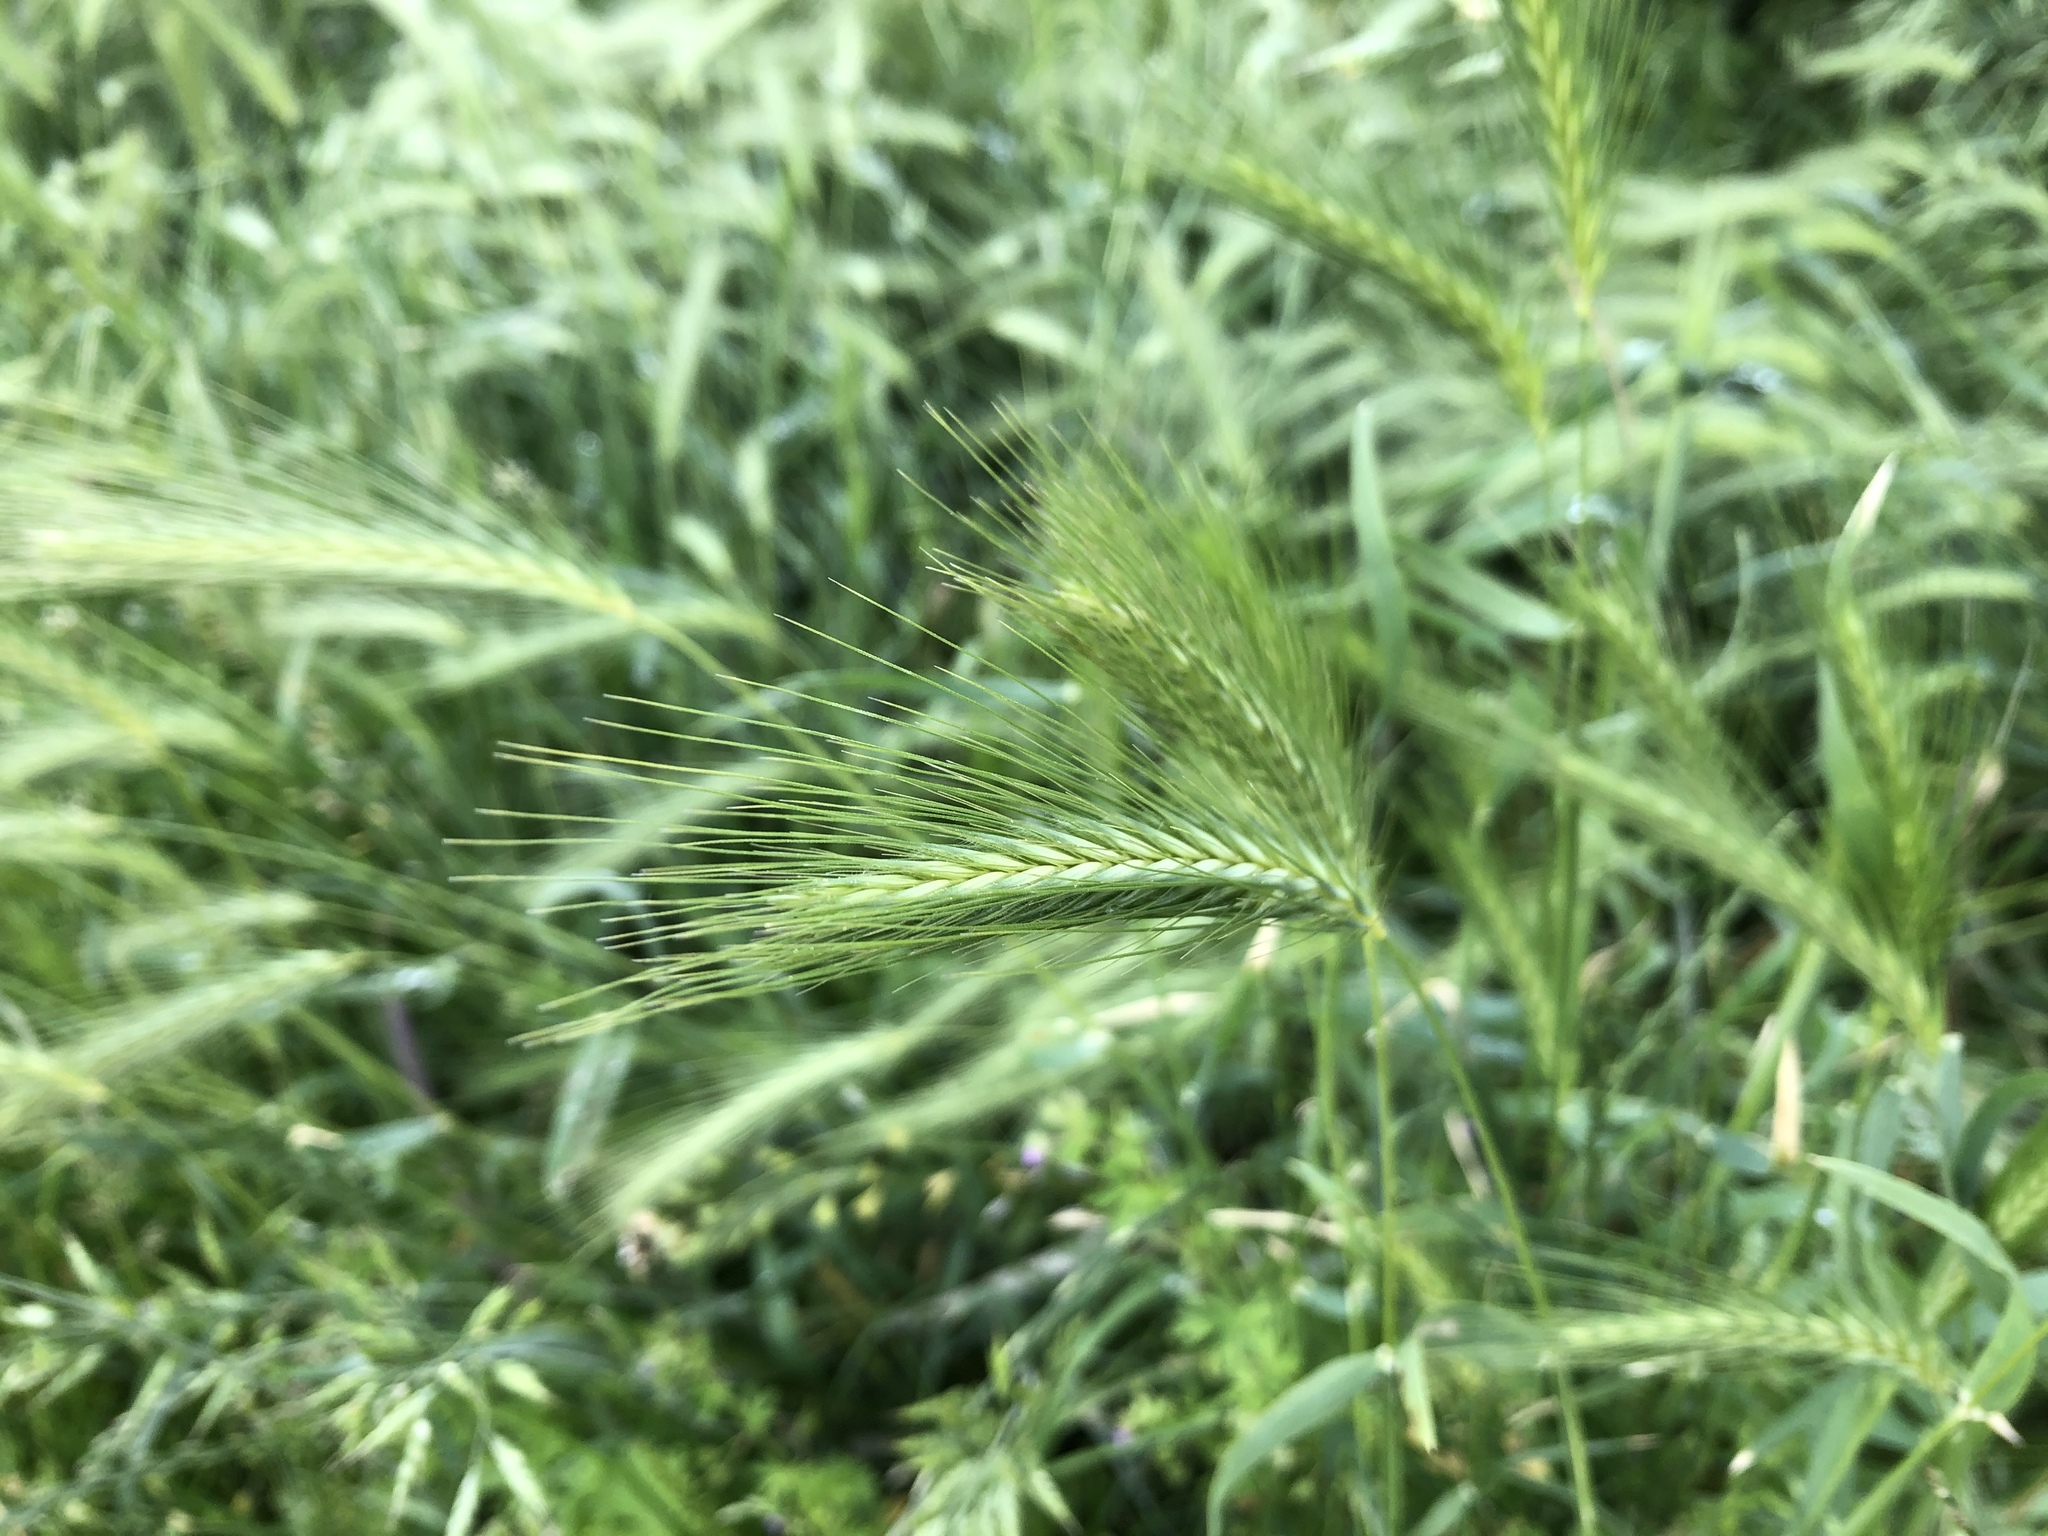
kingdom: Plantae
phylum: Tracheophyta
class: Liliopsida
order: Poales
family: Poaceae
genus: Hordeum
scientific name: Hordeum murinum
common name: Wall barley
